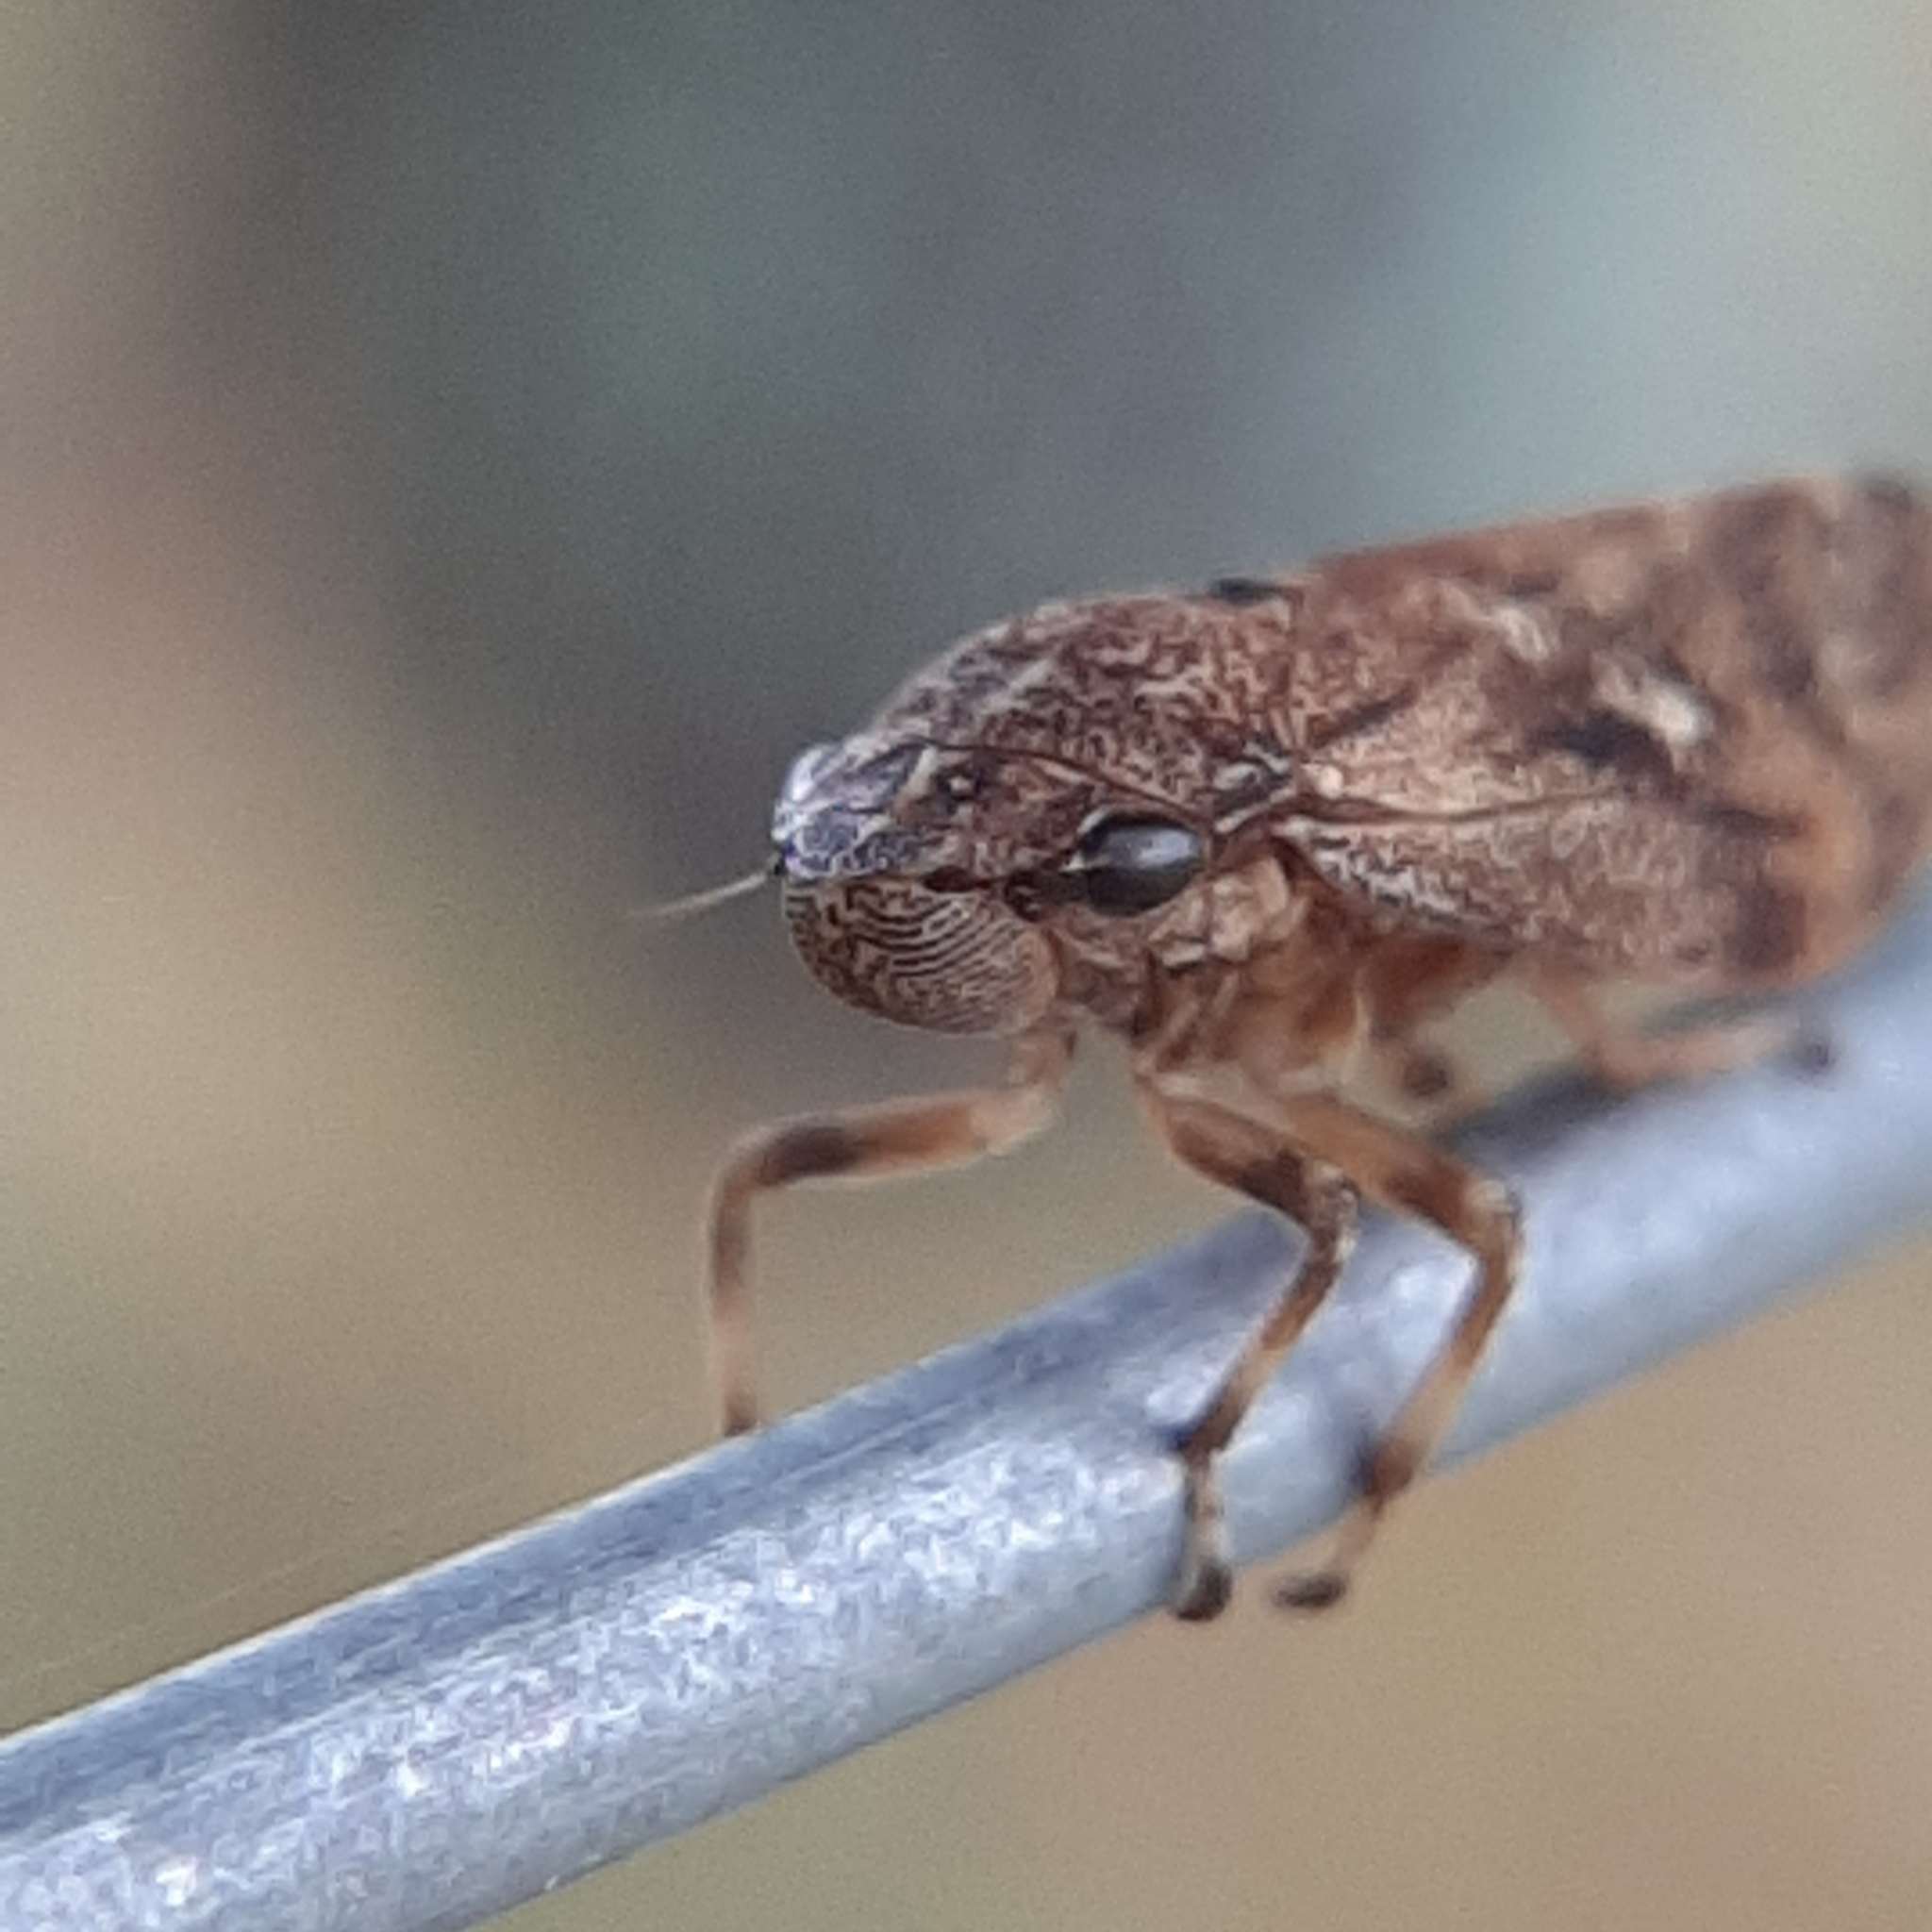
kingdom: Animalia
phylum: Arthropoda
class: Insecta
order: Hemiptera
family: Epipygidae
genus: Epipyga
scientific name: Epipyga cribrata
